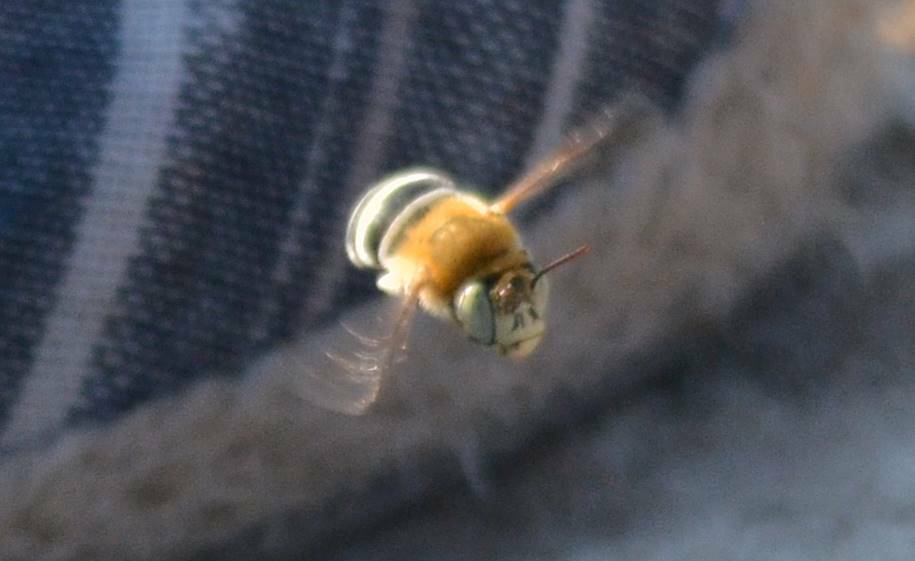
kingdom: Animalia
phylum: Arthropoda
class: Insecta
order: Hymenoptera
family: Apidae
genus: Amegilla
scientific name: Amegilla savignyi
